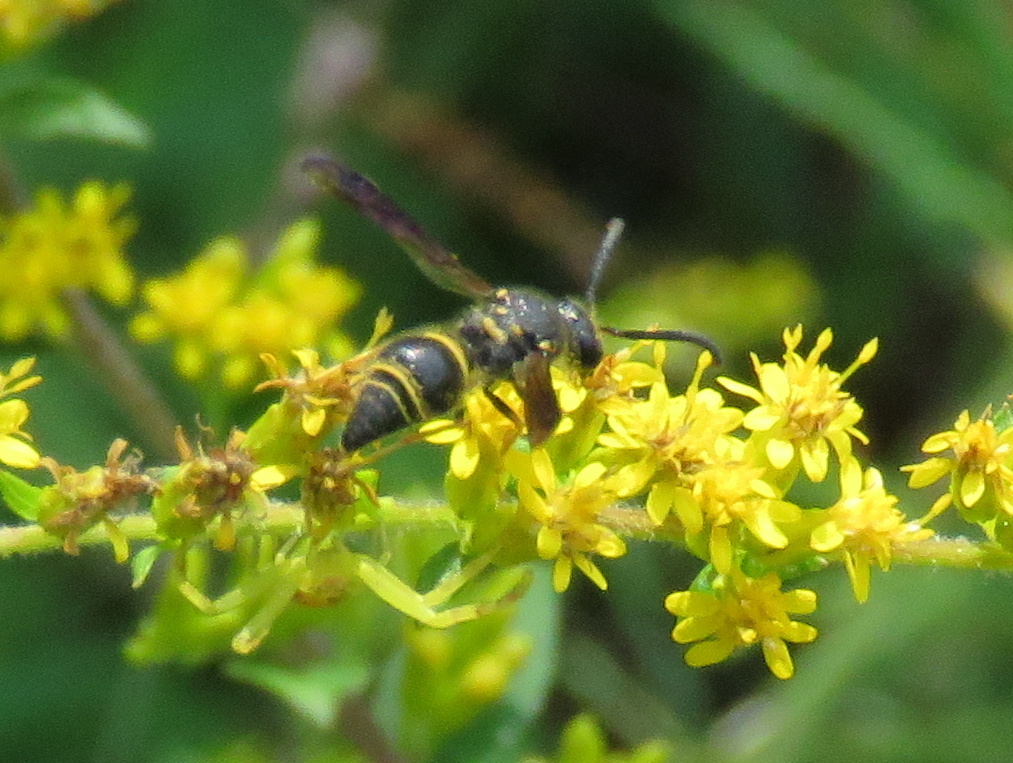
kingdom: Animalia
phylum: Arthropoda
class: Insecta
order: Hymenoptera
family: Vespidae
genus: Ancistrocerus
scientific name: Ancistrocerus campestris
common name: Smiling mason wasp
